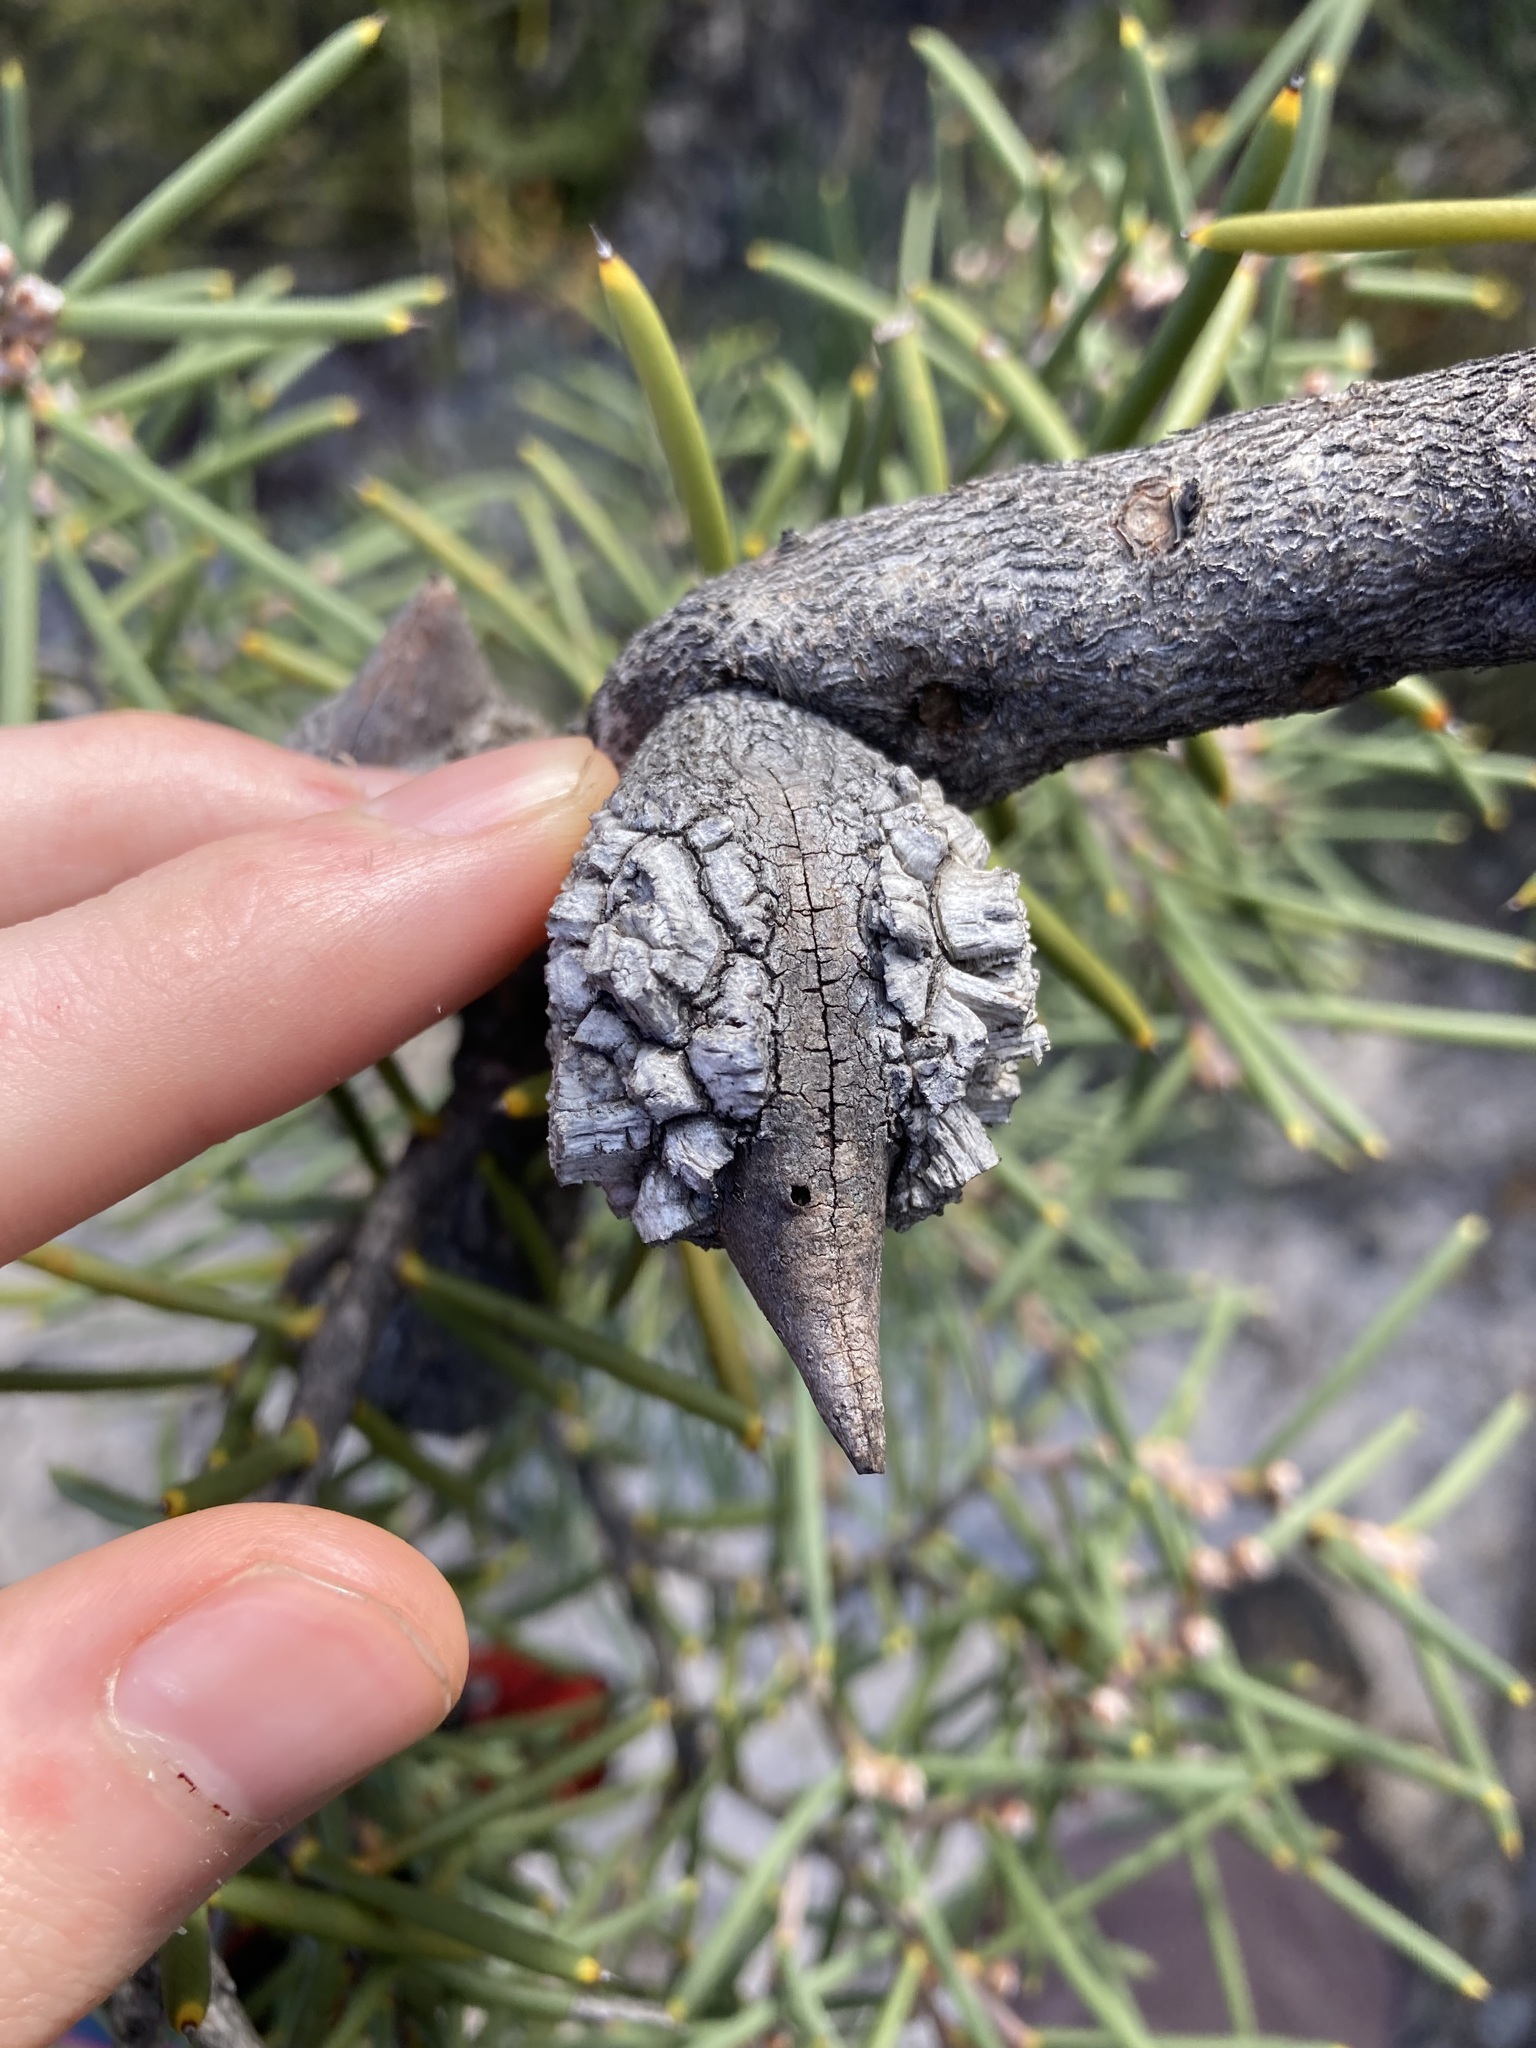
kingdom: Plantae
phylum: Tracheophyta
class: Magnoliopsida
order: Proteales
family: Proteaceae
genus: Hakea
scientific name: Hakea psilorrhyncha
